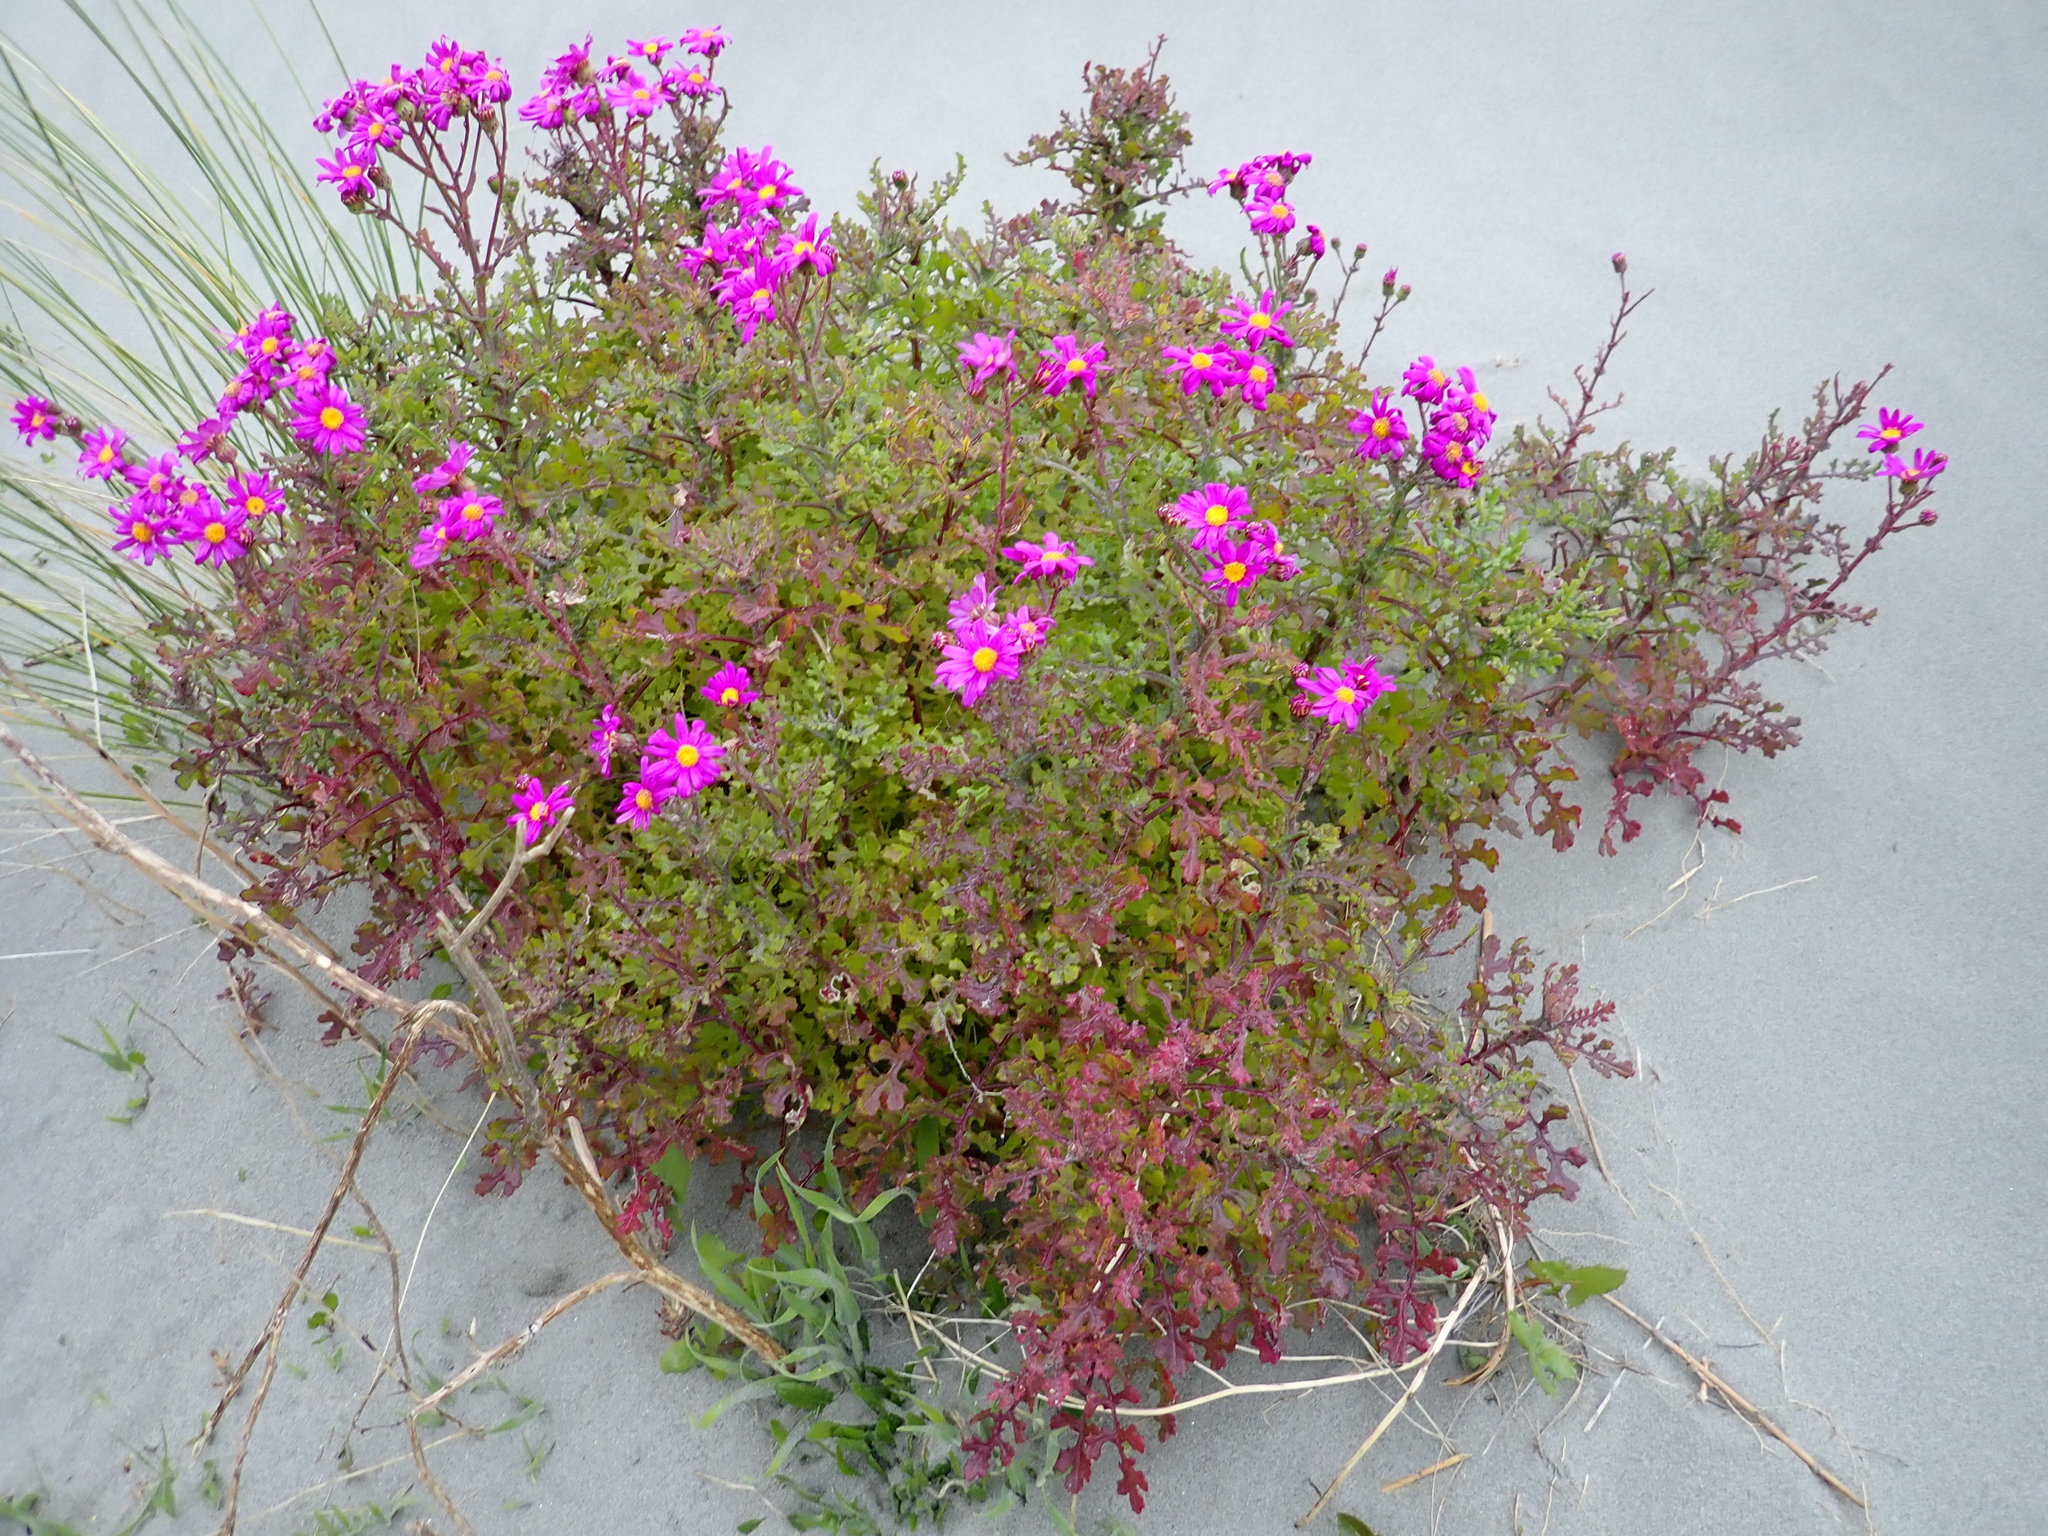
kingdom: Plantae
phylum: Tracheophyta
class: Magnoliopsida
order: Asterales
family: Asteraceae
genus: Senecio
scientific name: Senecio elegans
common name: Purple groundsel
